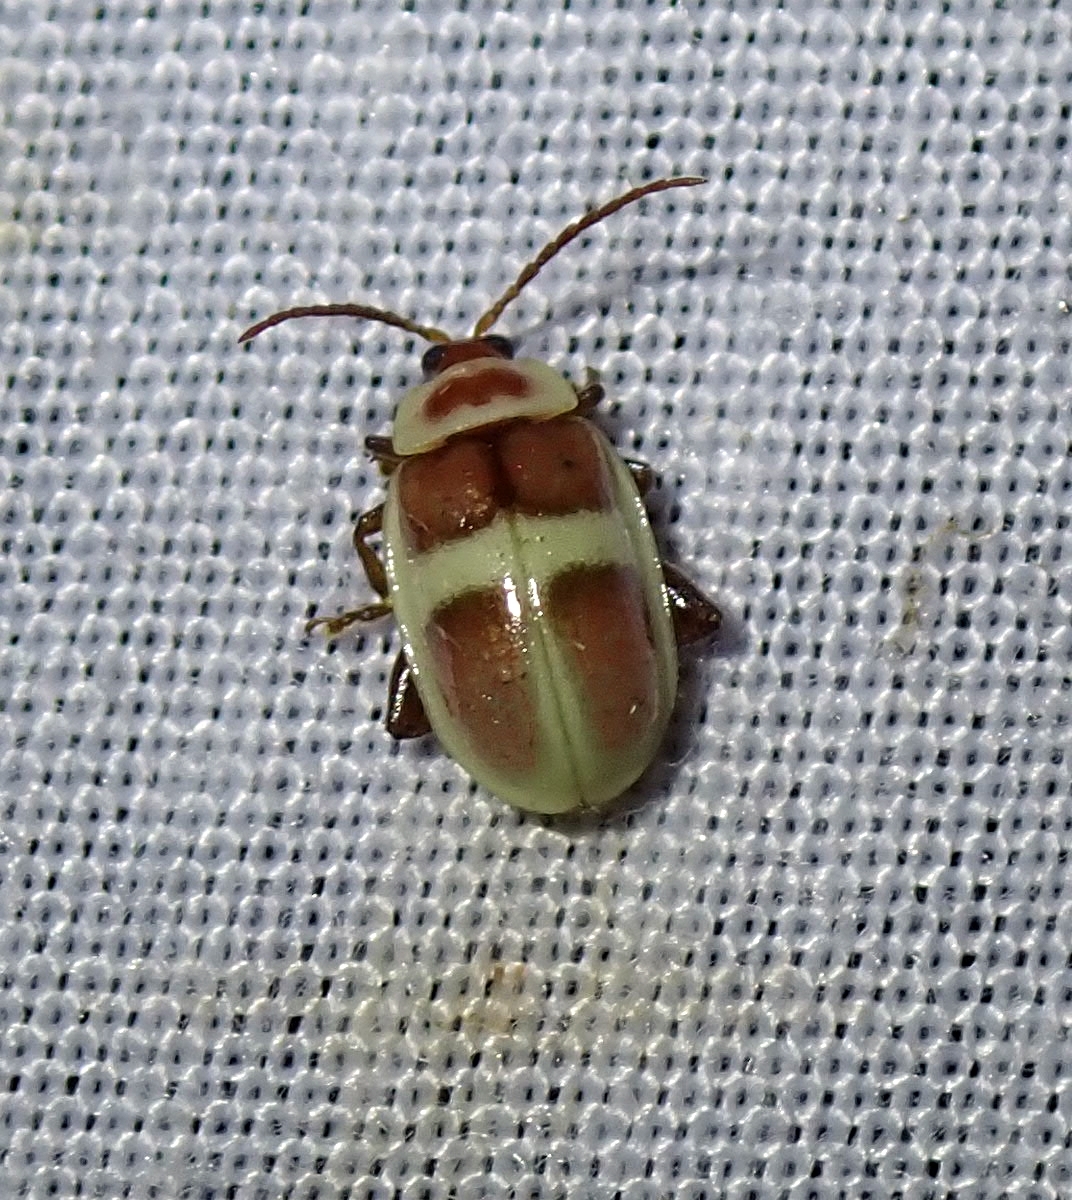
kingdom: Animalia
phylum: Arthropoda
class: Insecta
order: Coleoptera
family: Chrysomelidae
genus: Asphaera
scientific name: Asphaera discicollis
